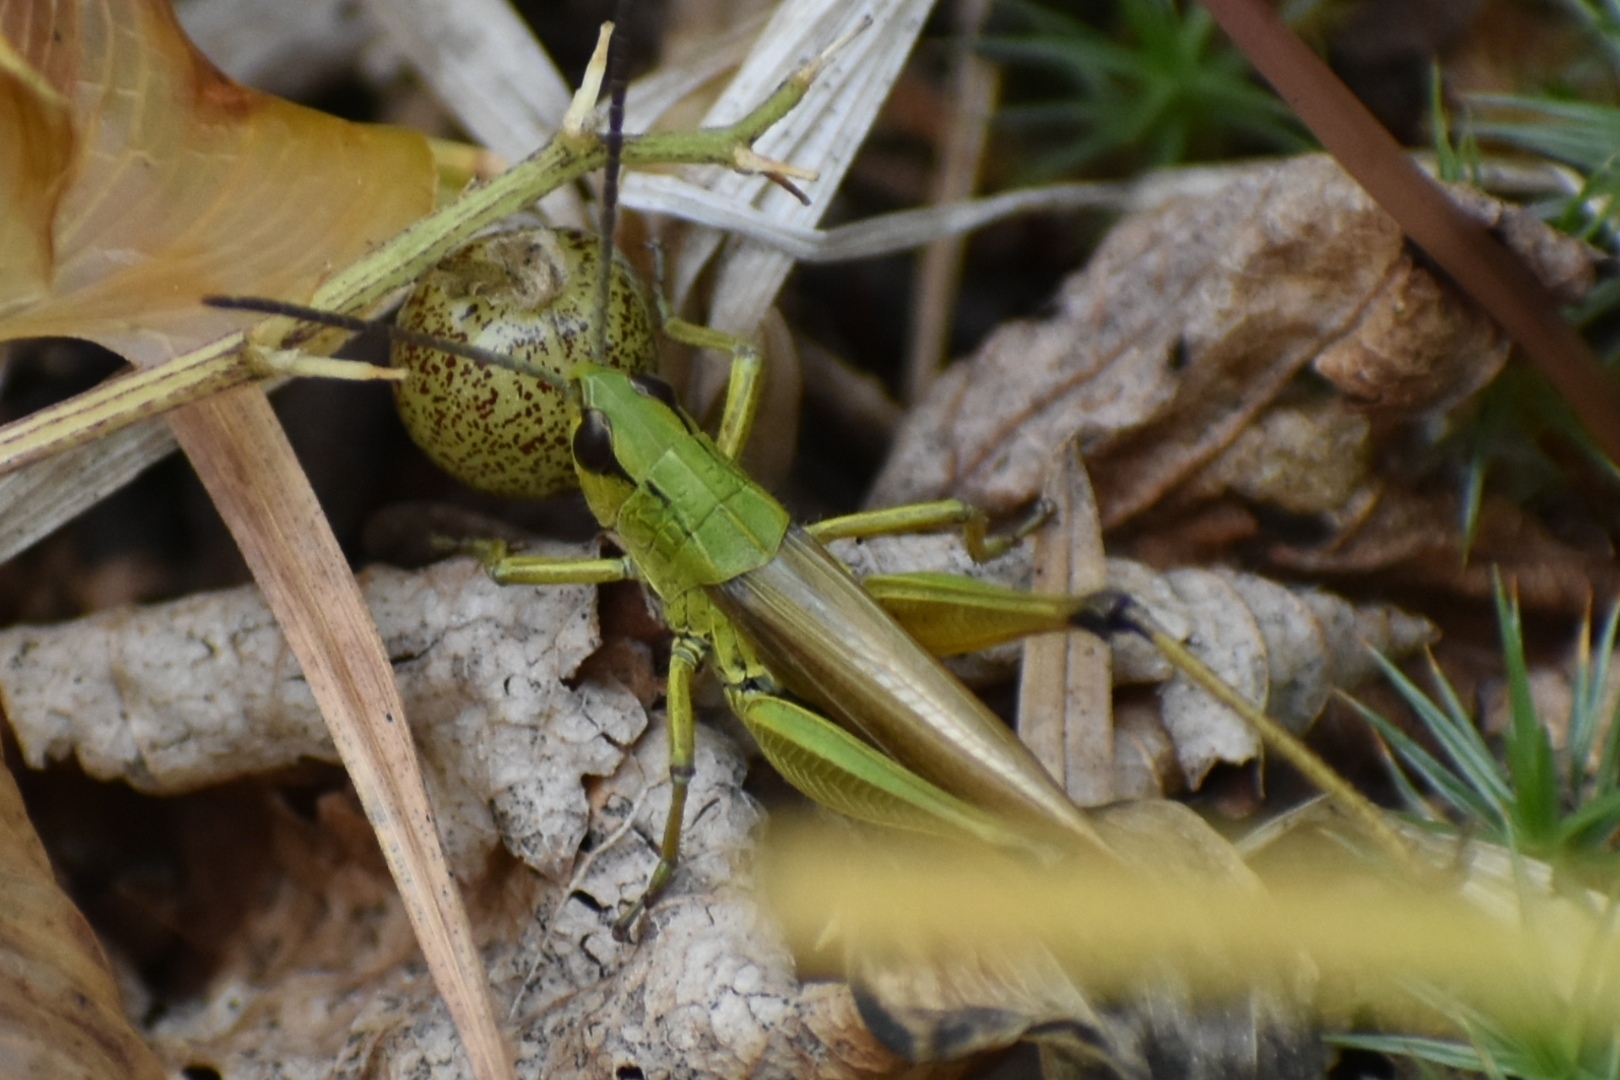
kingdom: Animalia
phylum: Arthropoda
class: Insecta
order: Orthoptera
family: Acrididae
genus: Pseudochorthippus
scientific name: Pseudochorthippus montanus
